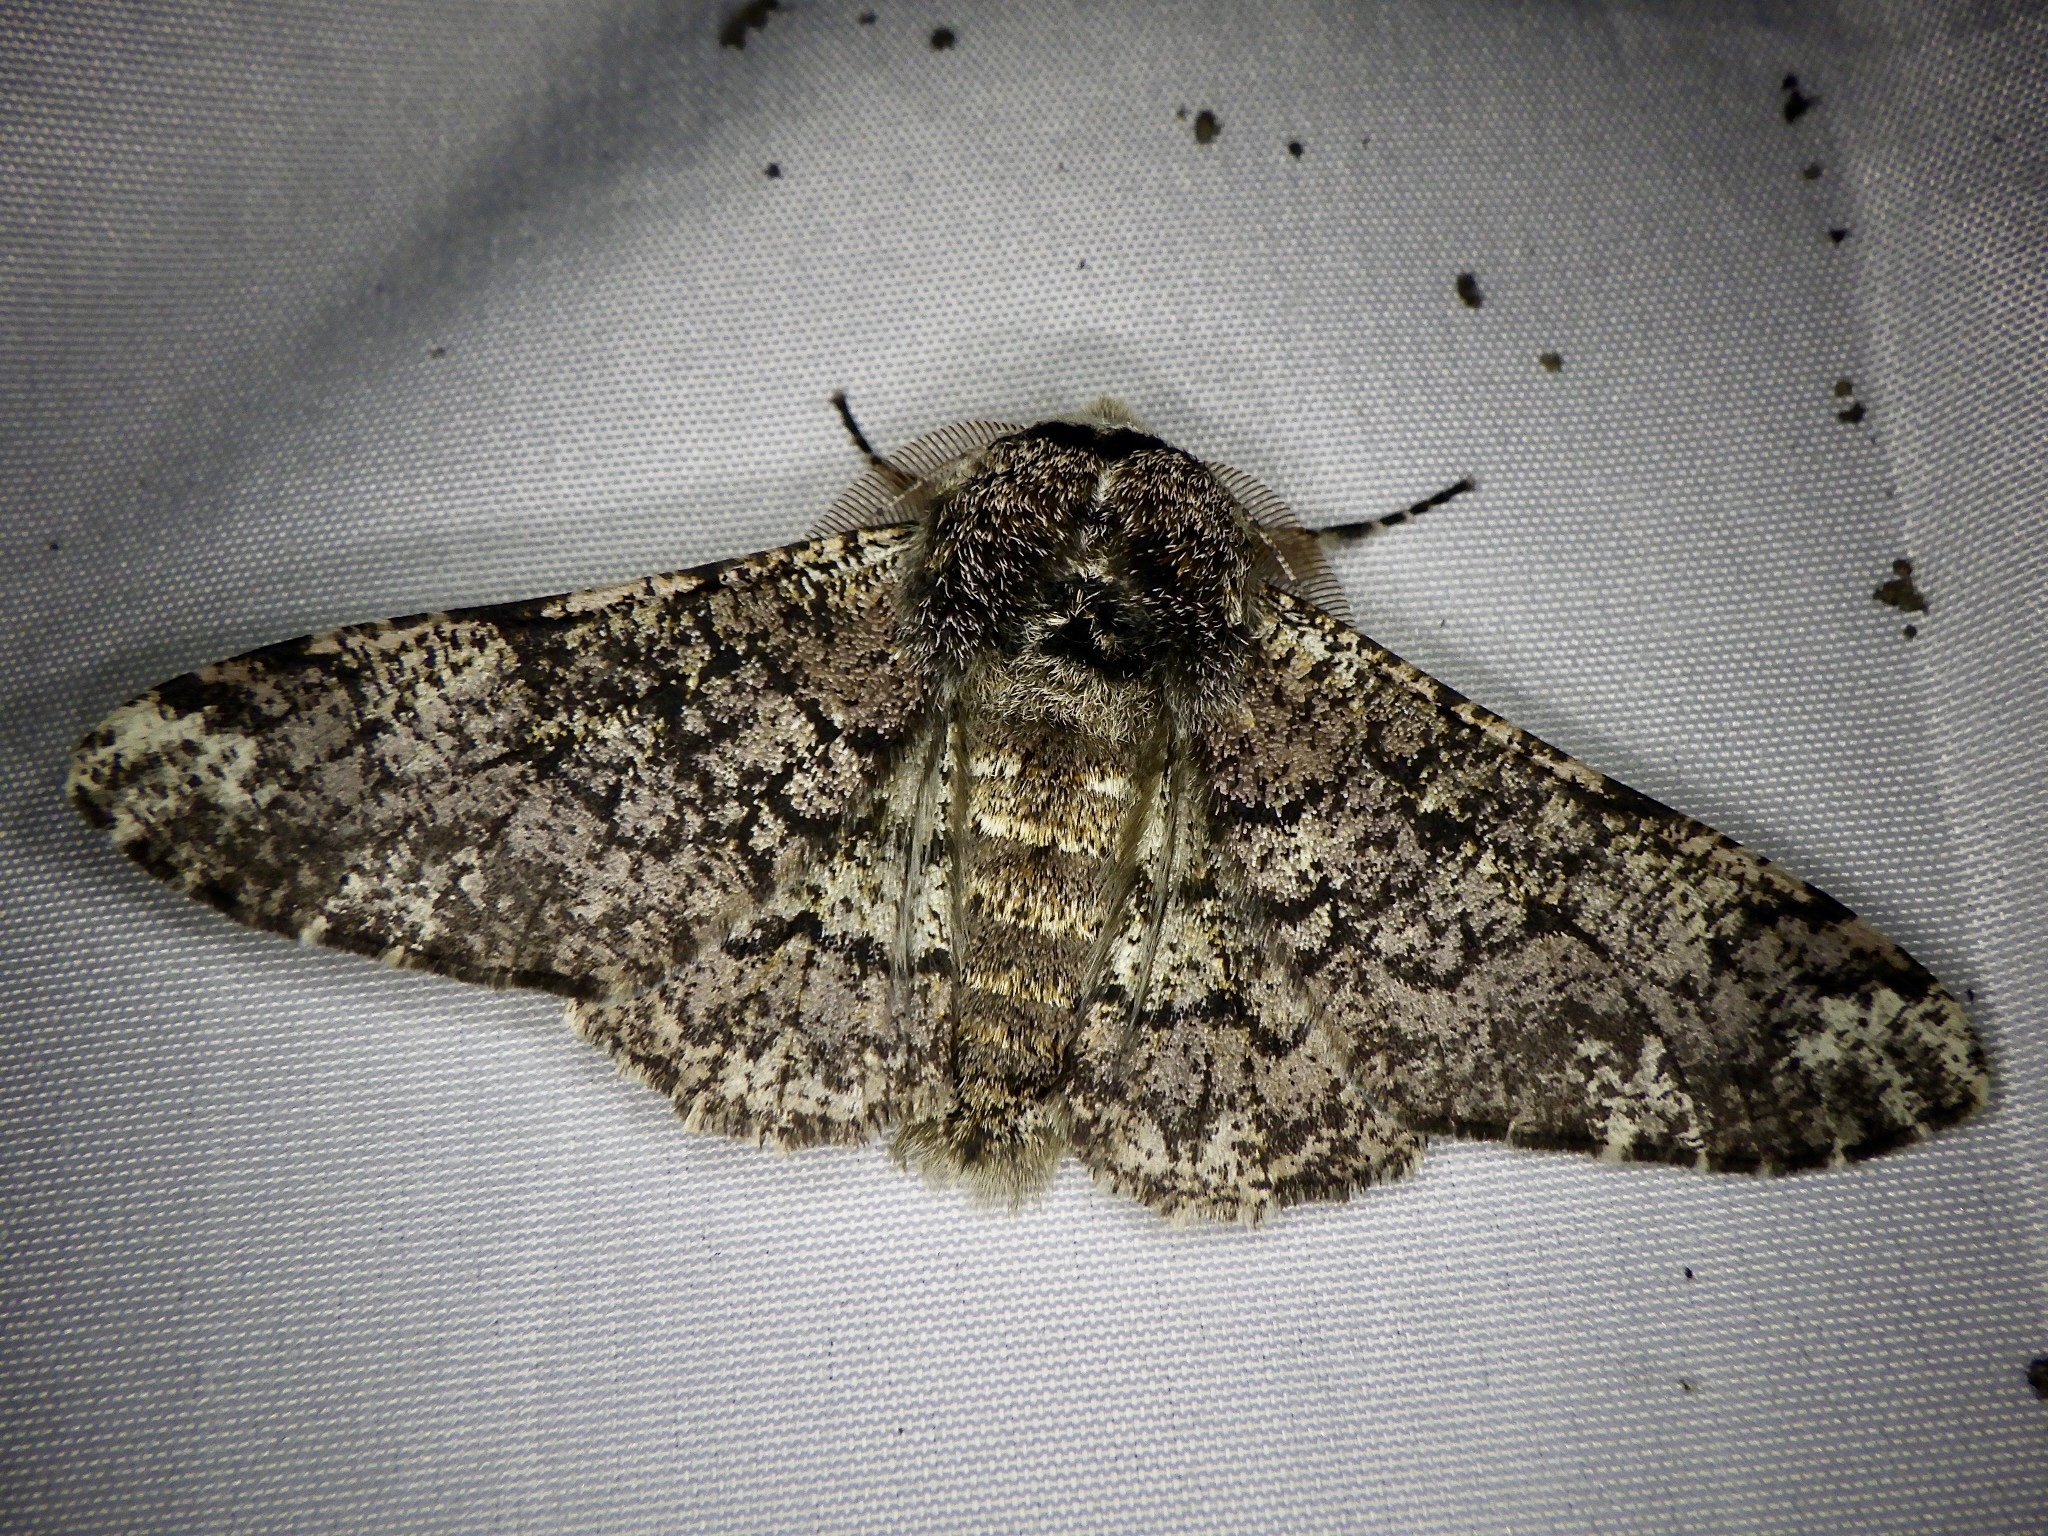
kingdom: Animalia
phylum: Arthropoda
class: Insecta
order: Lepidoptera
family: Geometridae
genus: Biston
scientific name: Biston robustum
